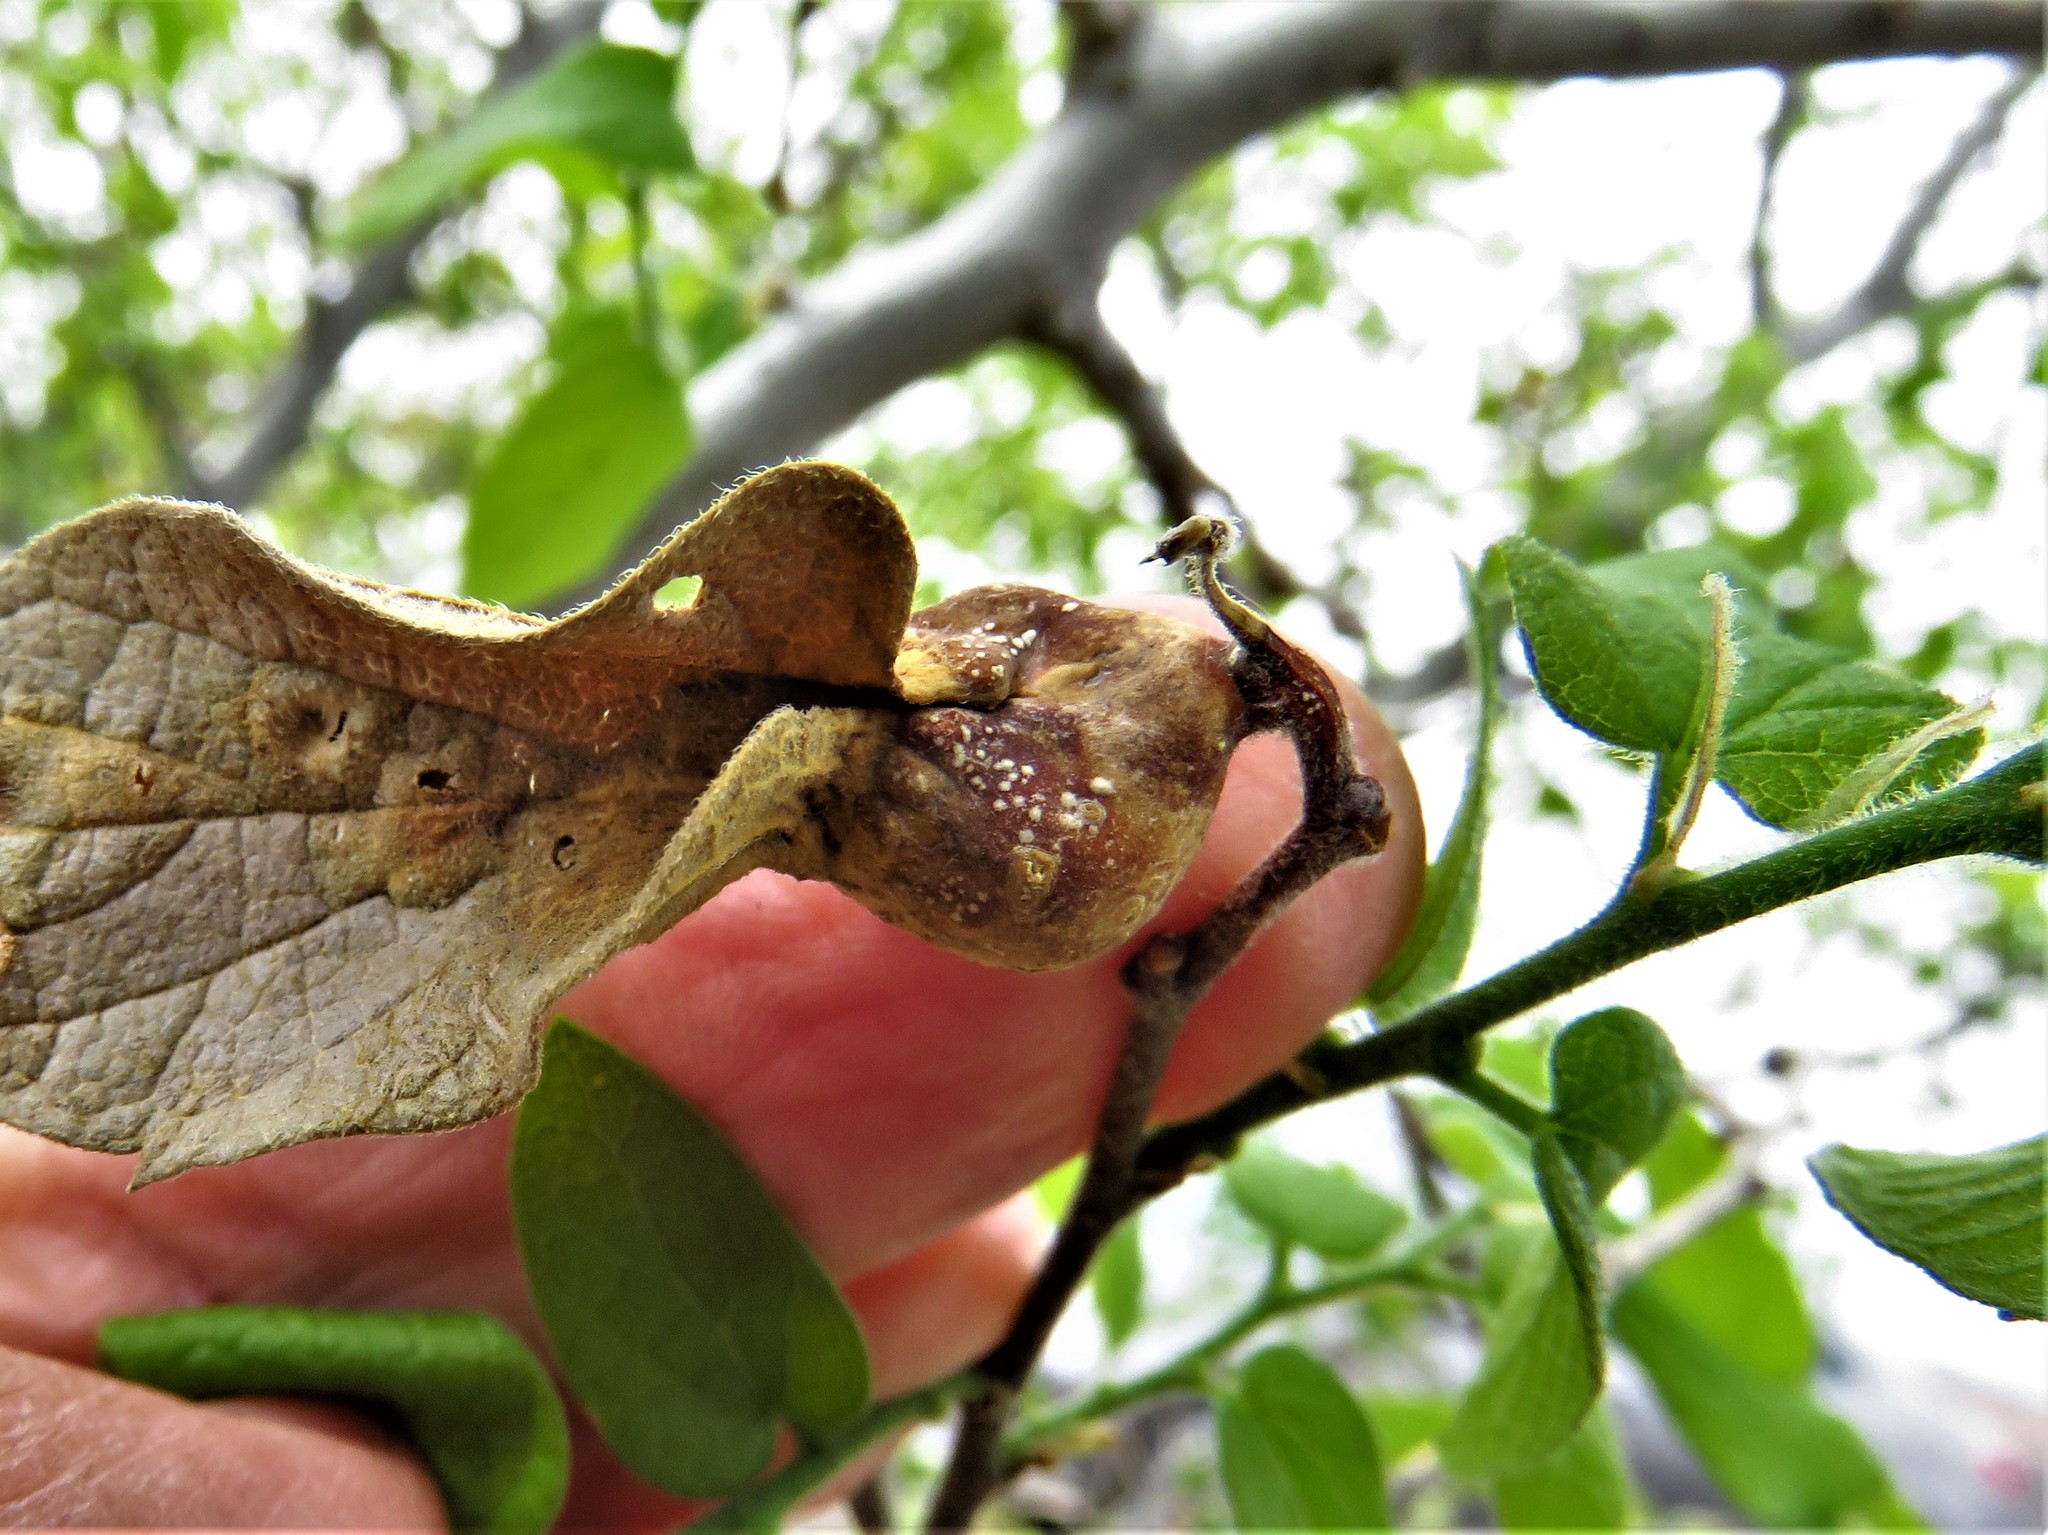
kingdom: Animalia
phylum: Arthropoda
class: Insecta
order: Hemiptera
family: Aphalaridae
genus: Pachypsylla
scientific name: Pachypsylla venusta
